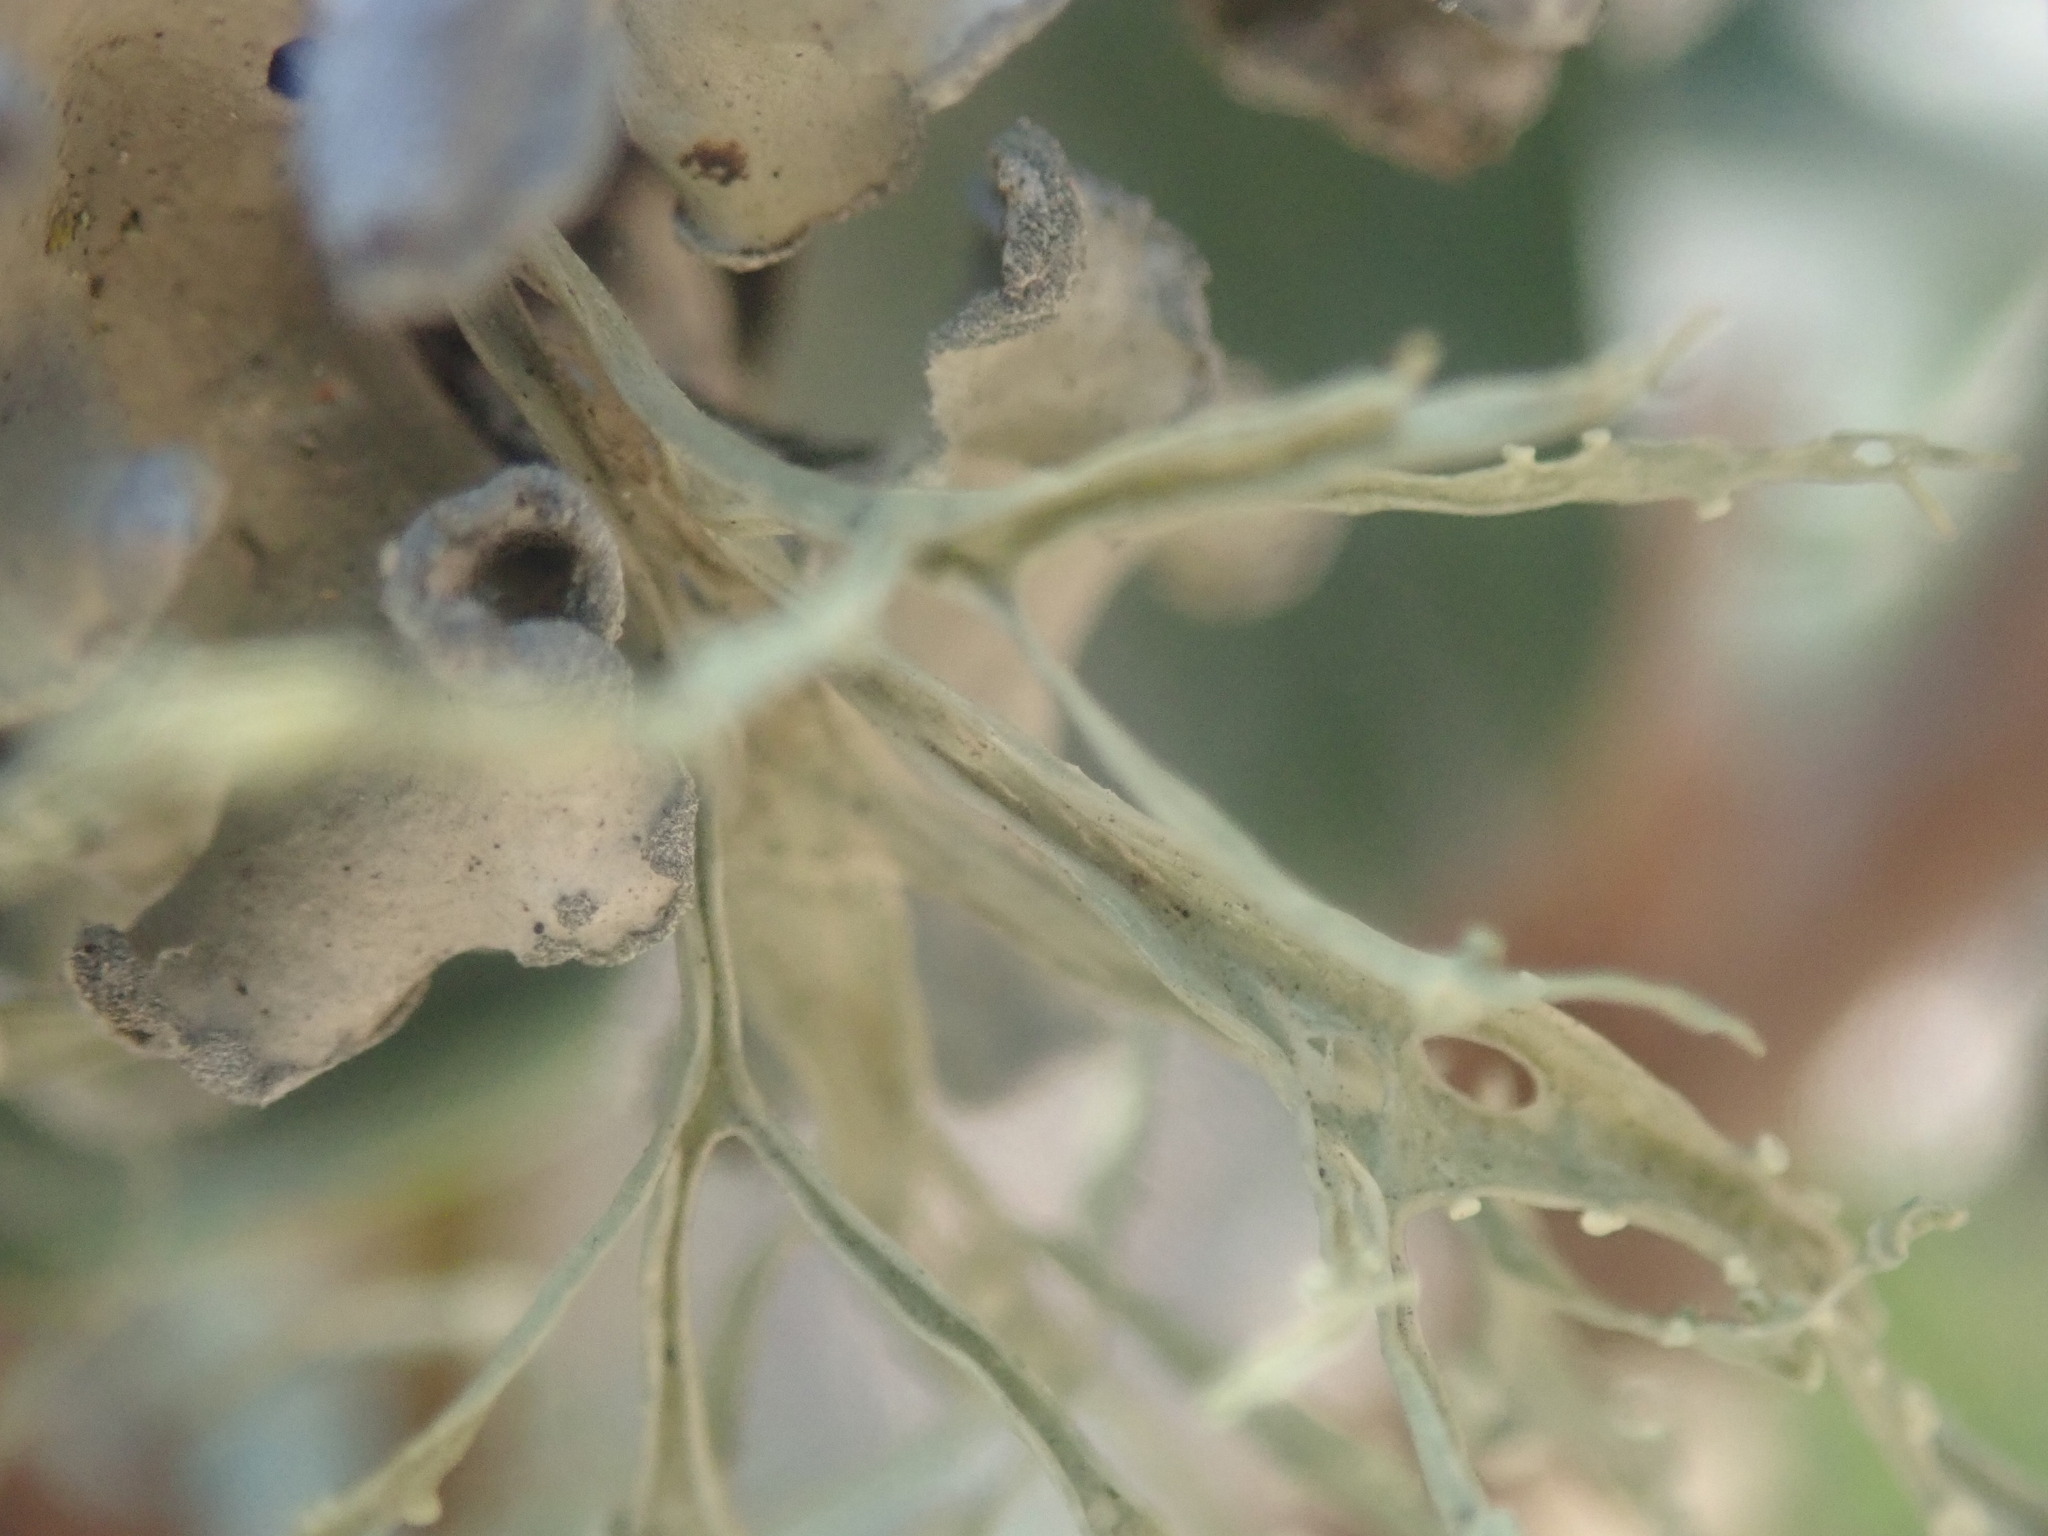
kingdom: Fungi
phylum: Ascomycota
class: Lecanoromycetes
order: Lecanorales
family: Ramalinaceae
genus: Ramalina
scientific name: Ramalina celastri
